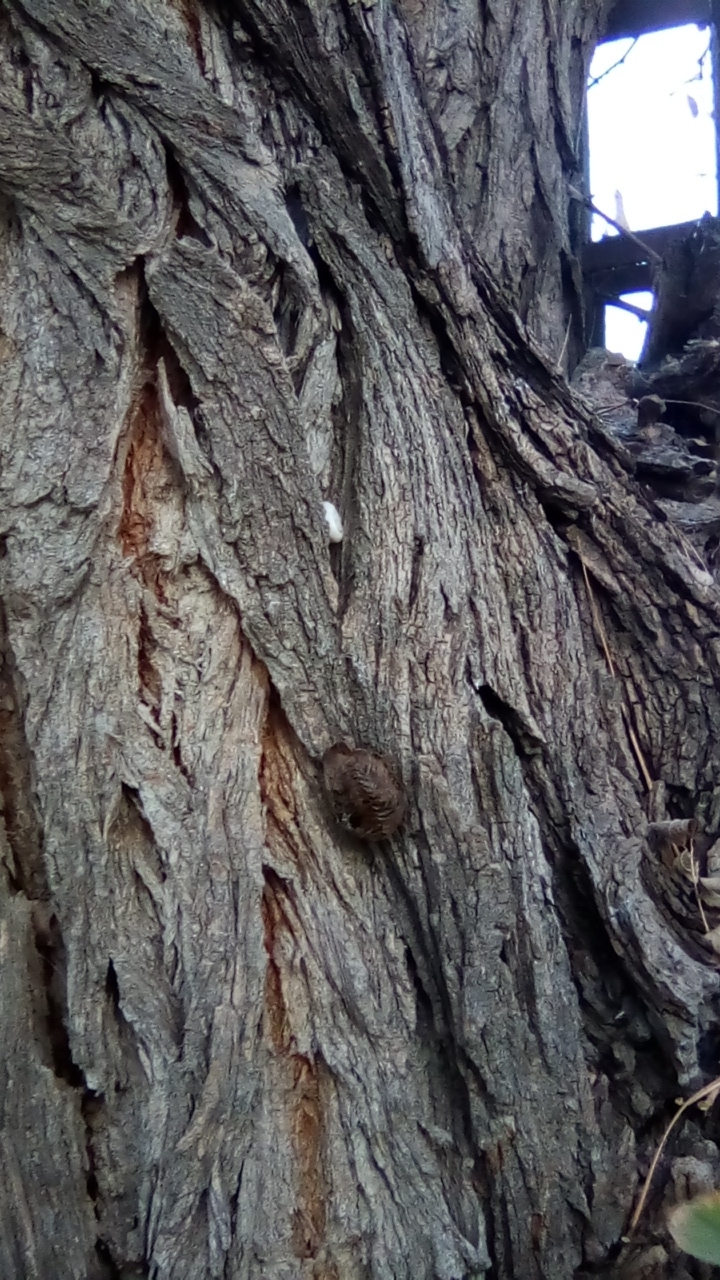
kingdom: Animalia
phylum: Arthropoda
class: Insecta
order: Mantodea
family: Mantidae
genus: Hierodula
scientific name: Hierodula transcaucasica
